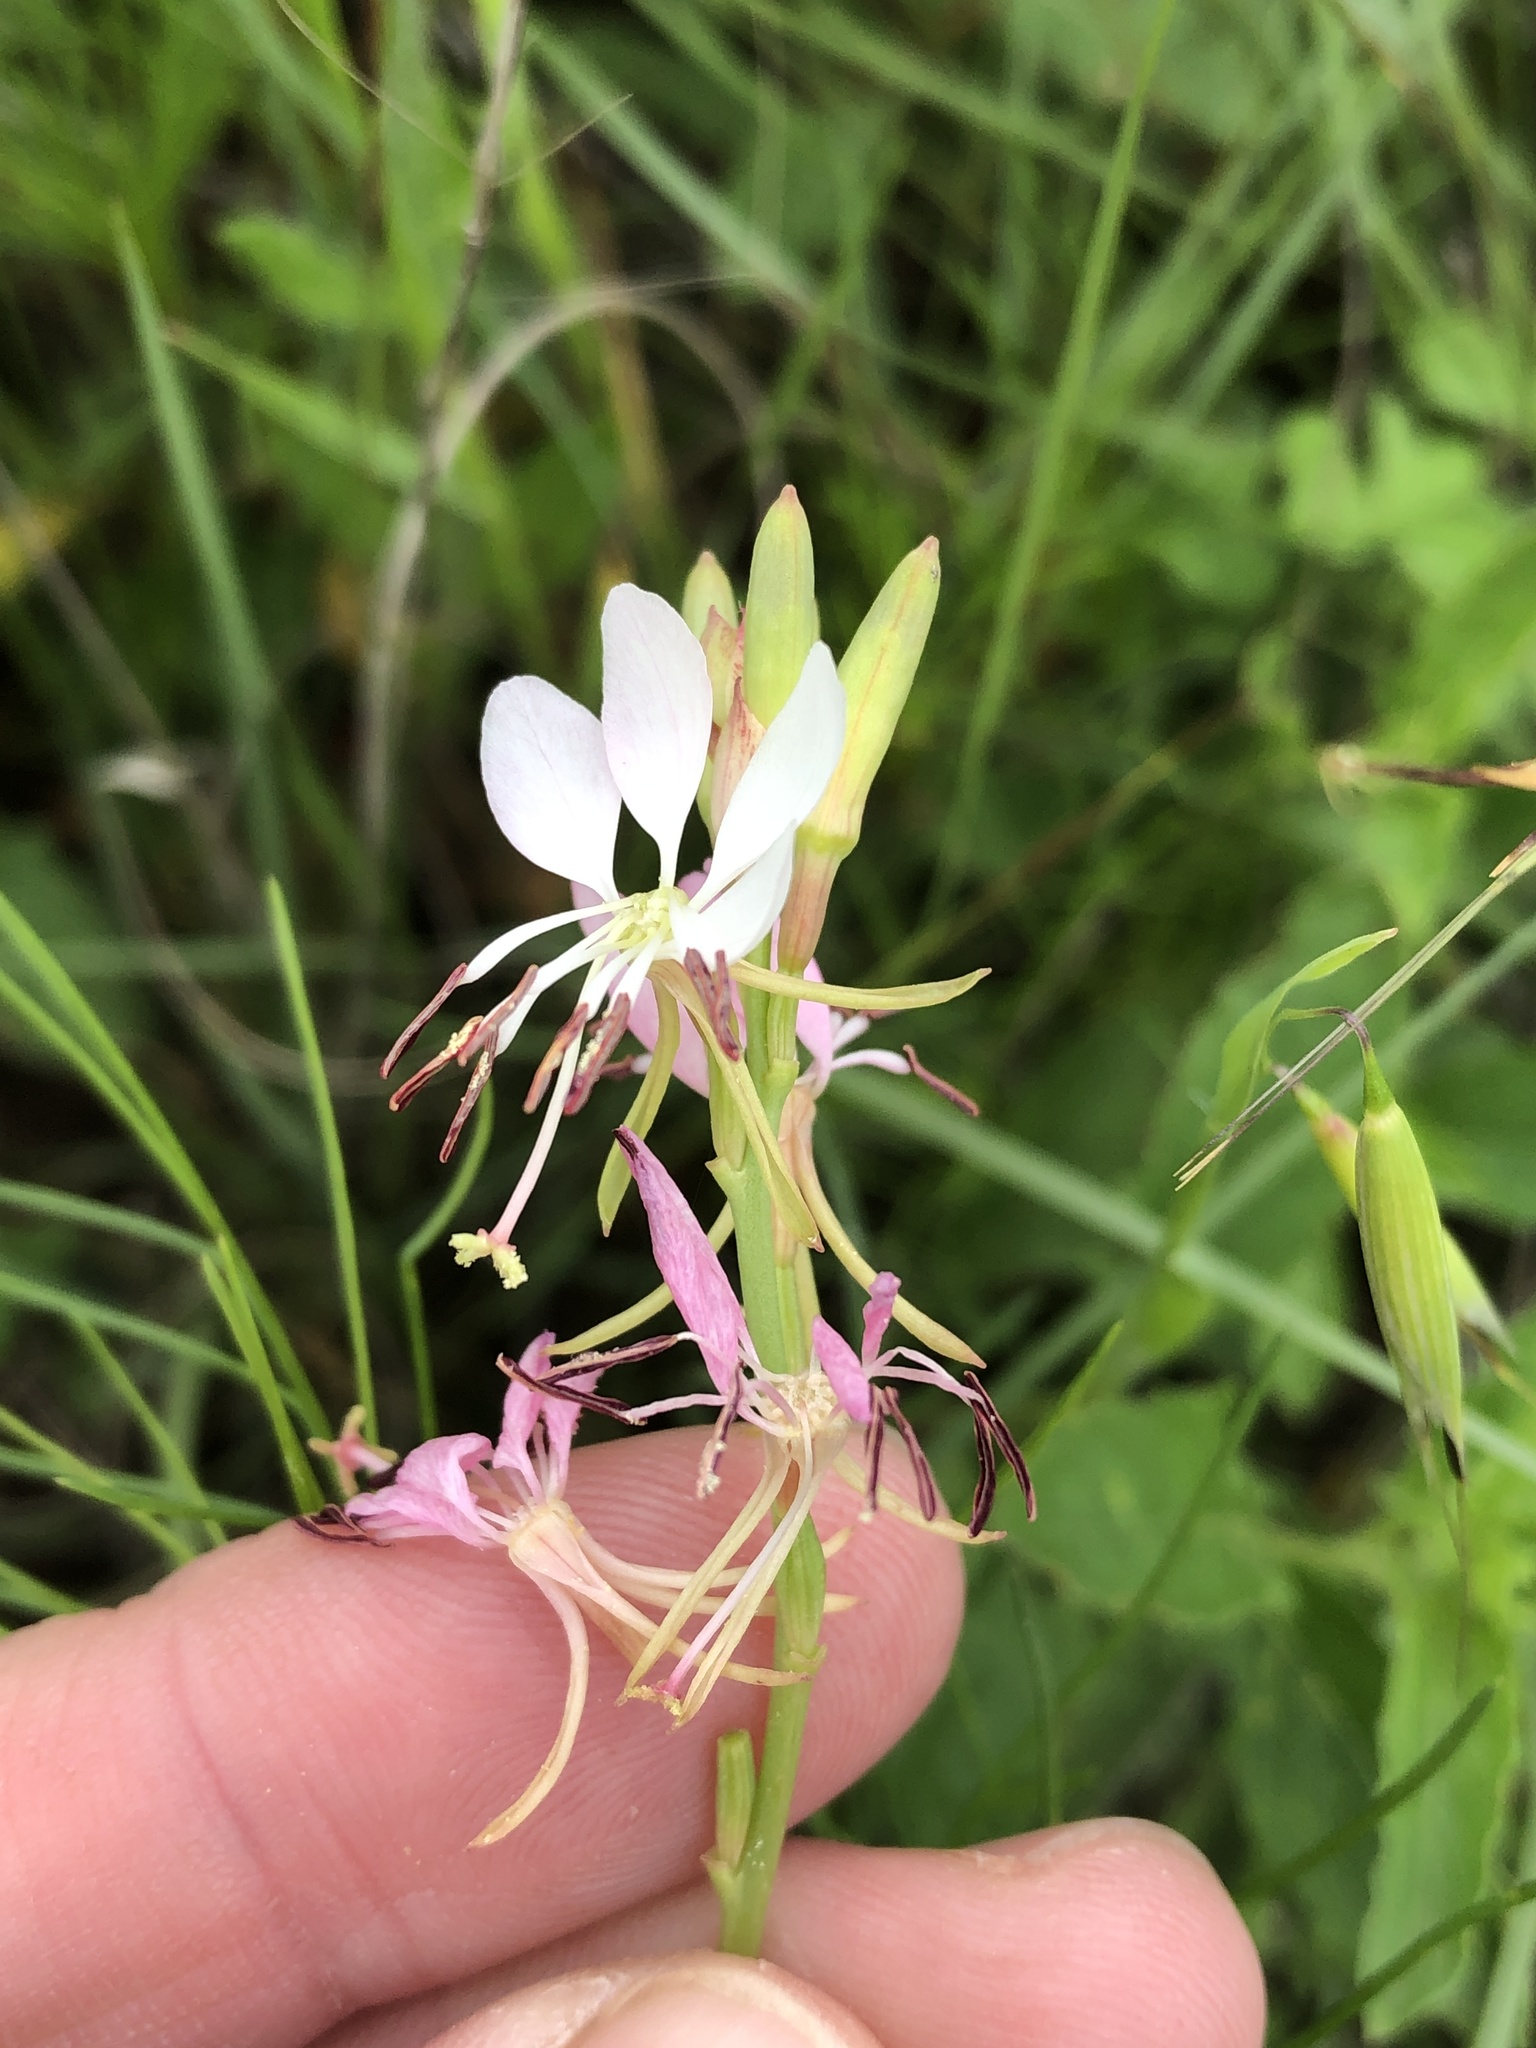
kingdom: Plantae
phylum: Tracheophyta
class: Magnoliopsida
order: Myrtales
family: Onagraceae
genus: Oenothera
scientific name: Oenothera suffulta
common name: Kisses
